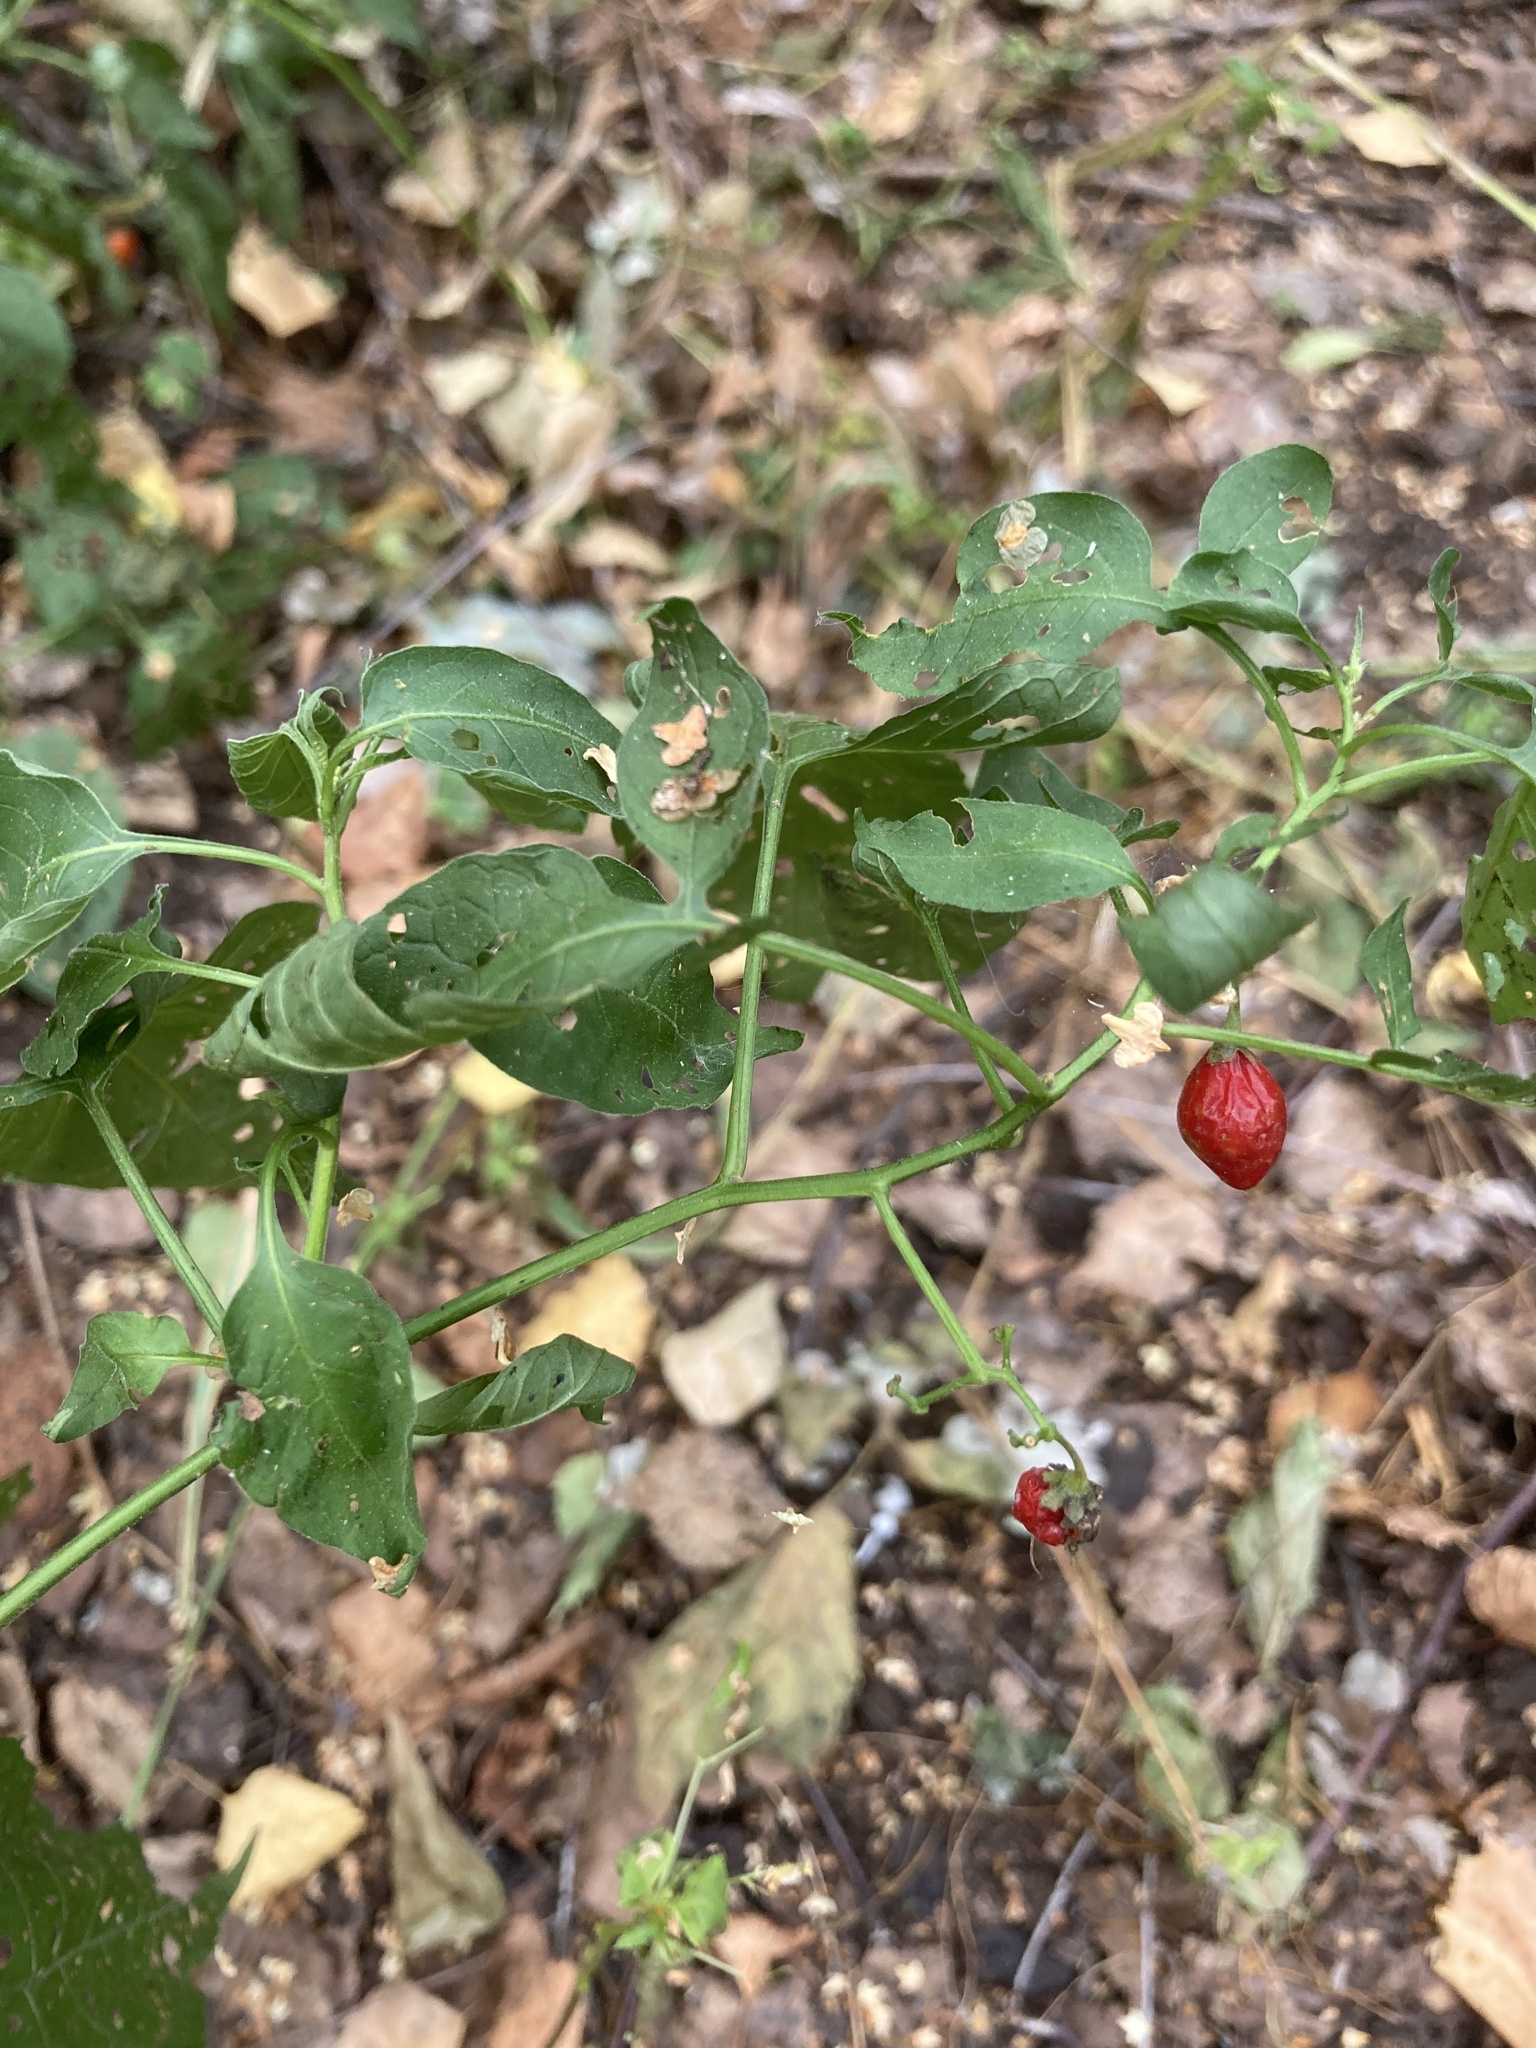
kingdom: Plantae
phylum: Tracheophyta
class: Magnoliopsida
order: Solanales
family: Solanaceae
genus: Solanum
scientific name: Solanum dulcamara
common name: Climbing nightshade
